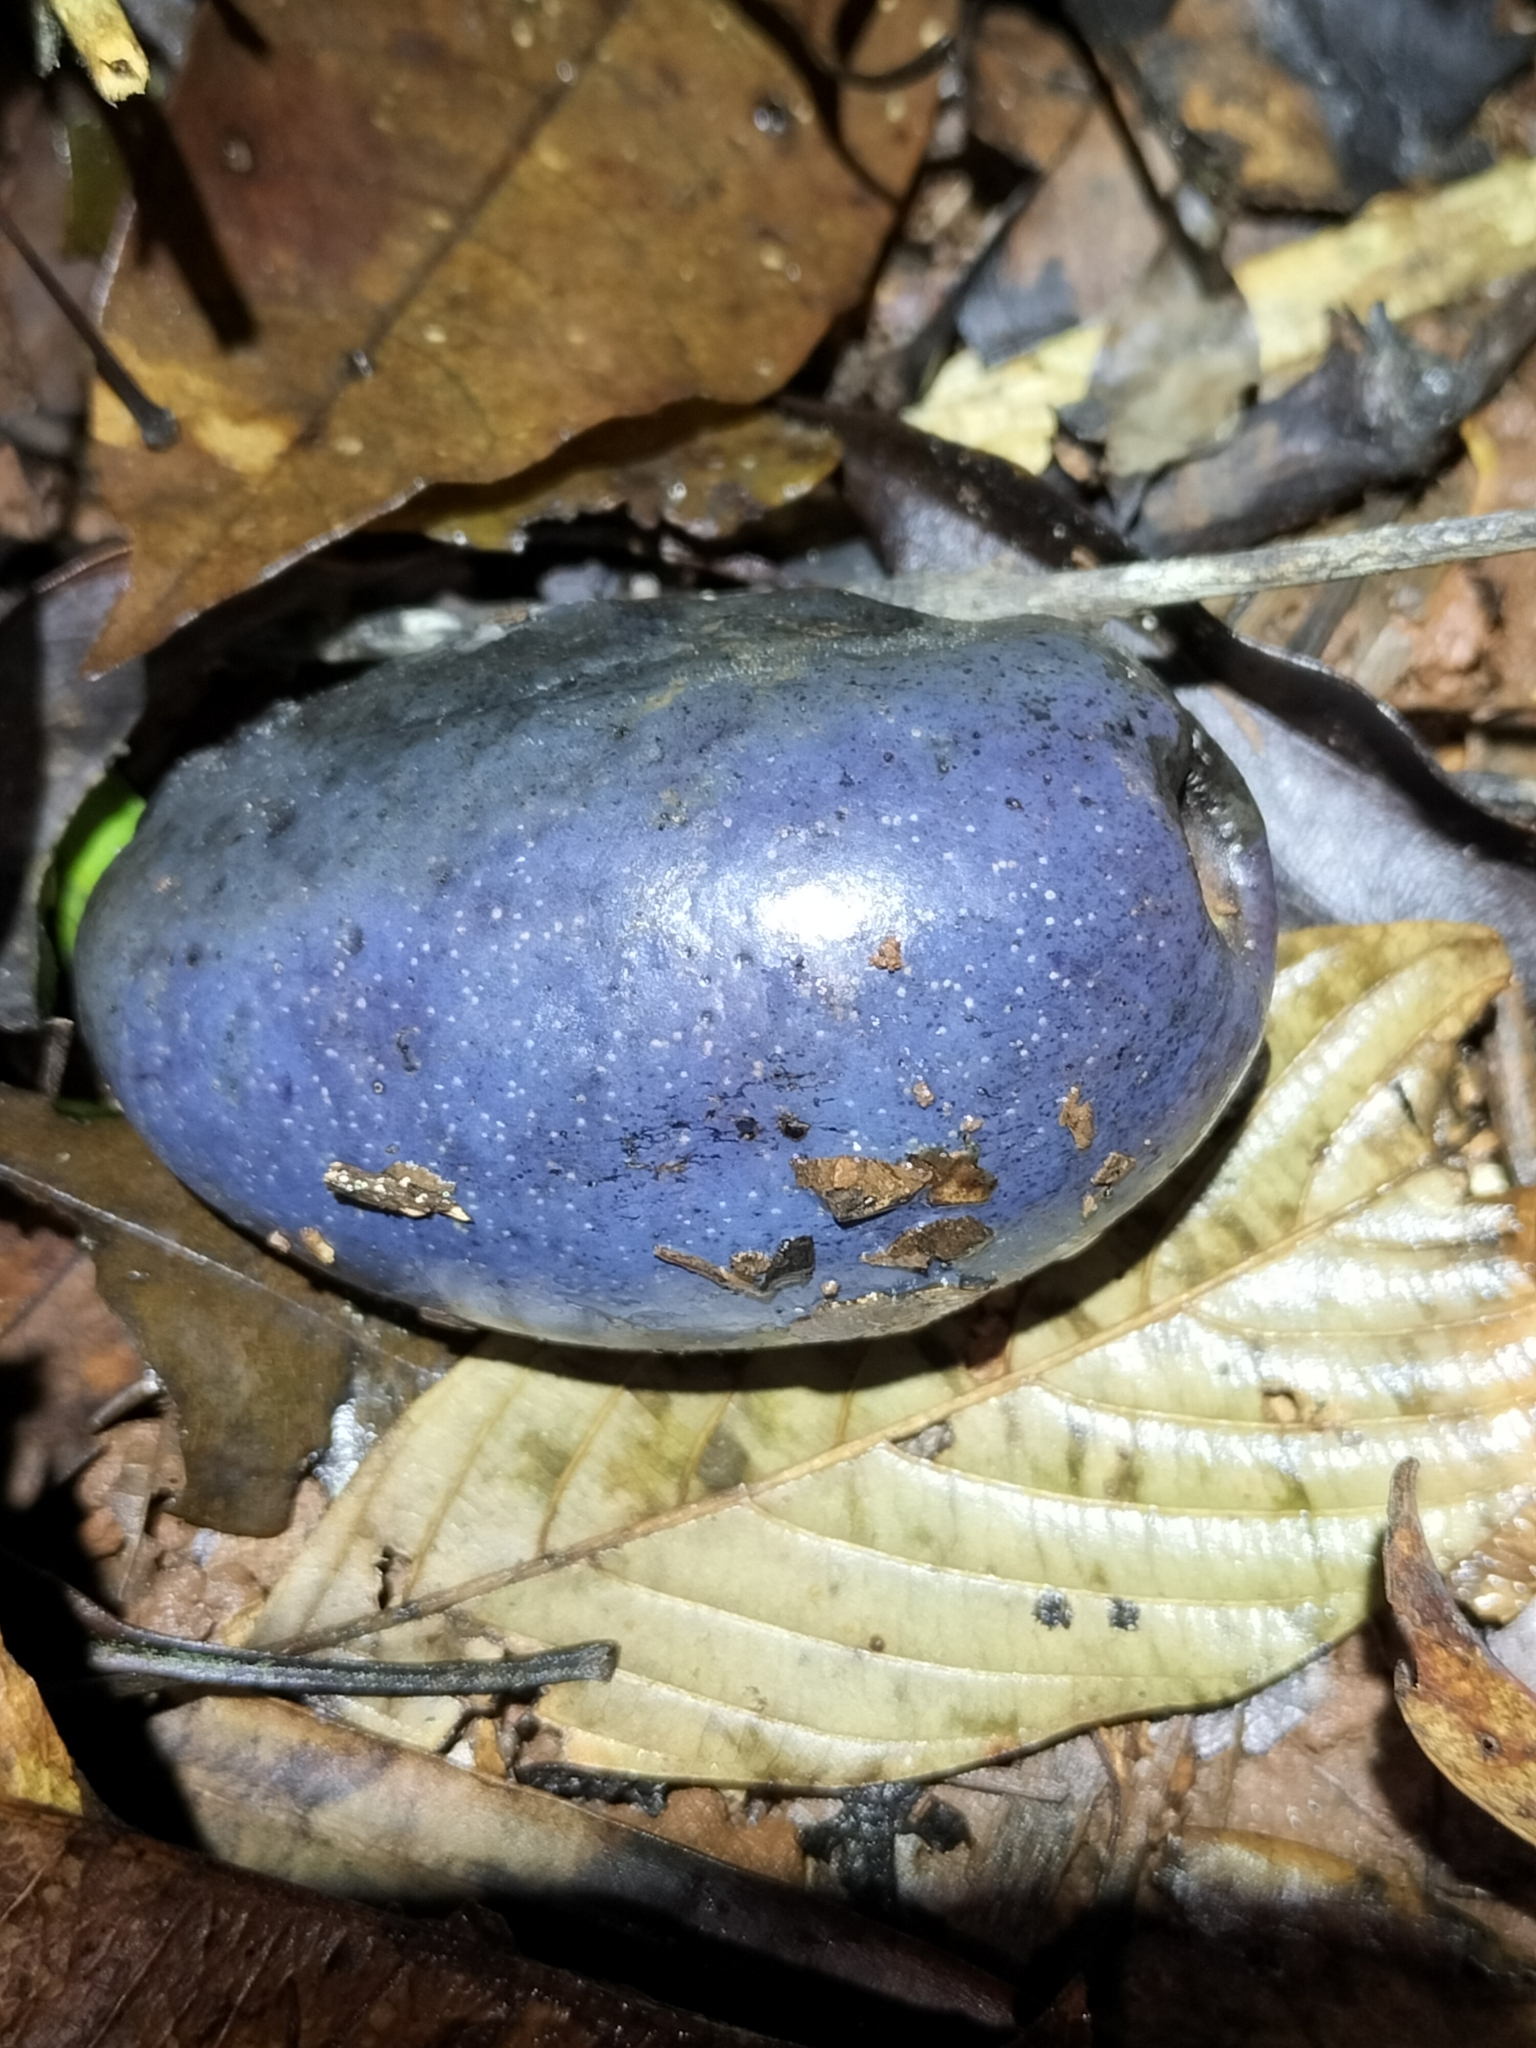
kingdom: Plantae
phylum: Tracheophyta
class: Magnoliopsida
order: Gentianales
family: Apocynaceae
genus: Cerbera
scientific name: Cerbera inflata
